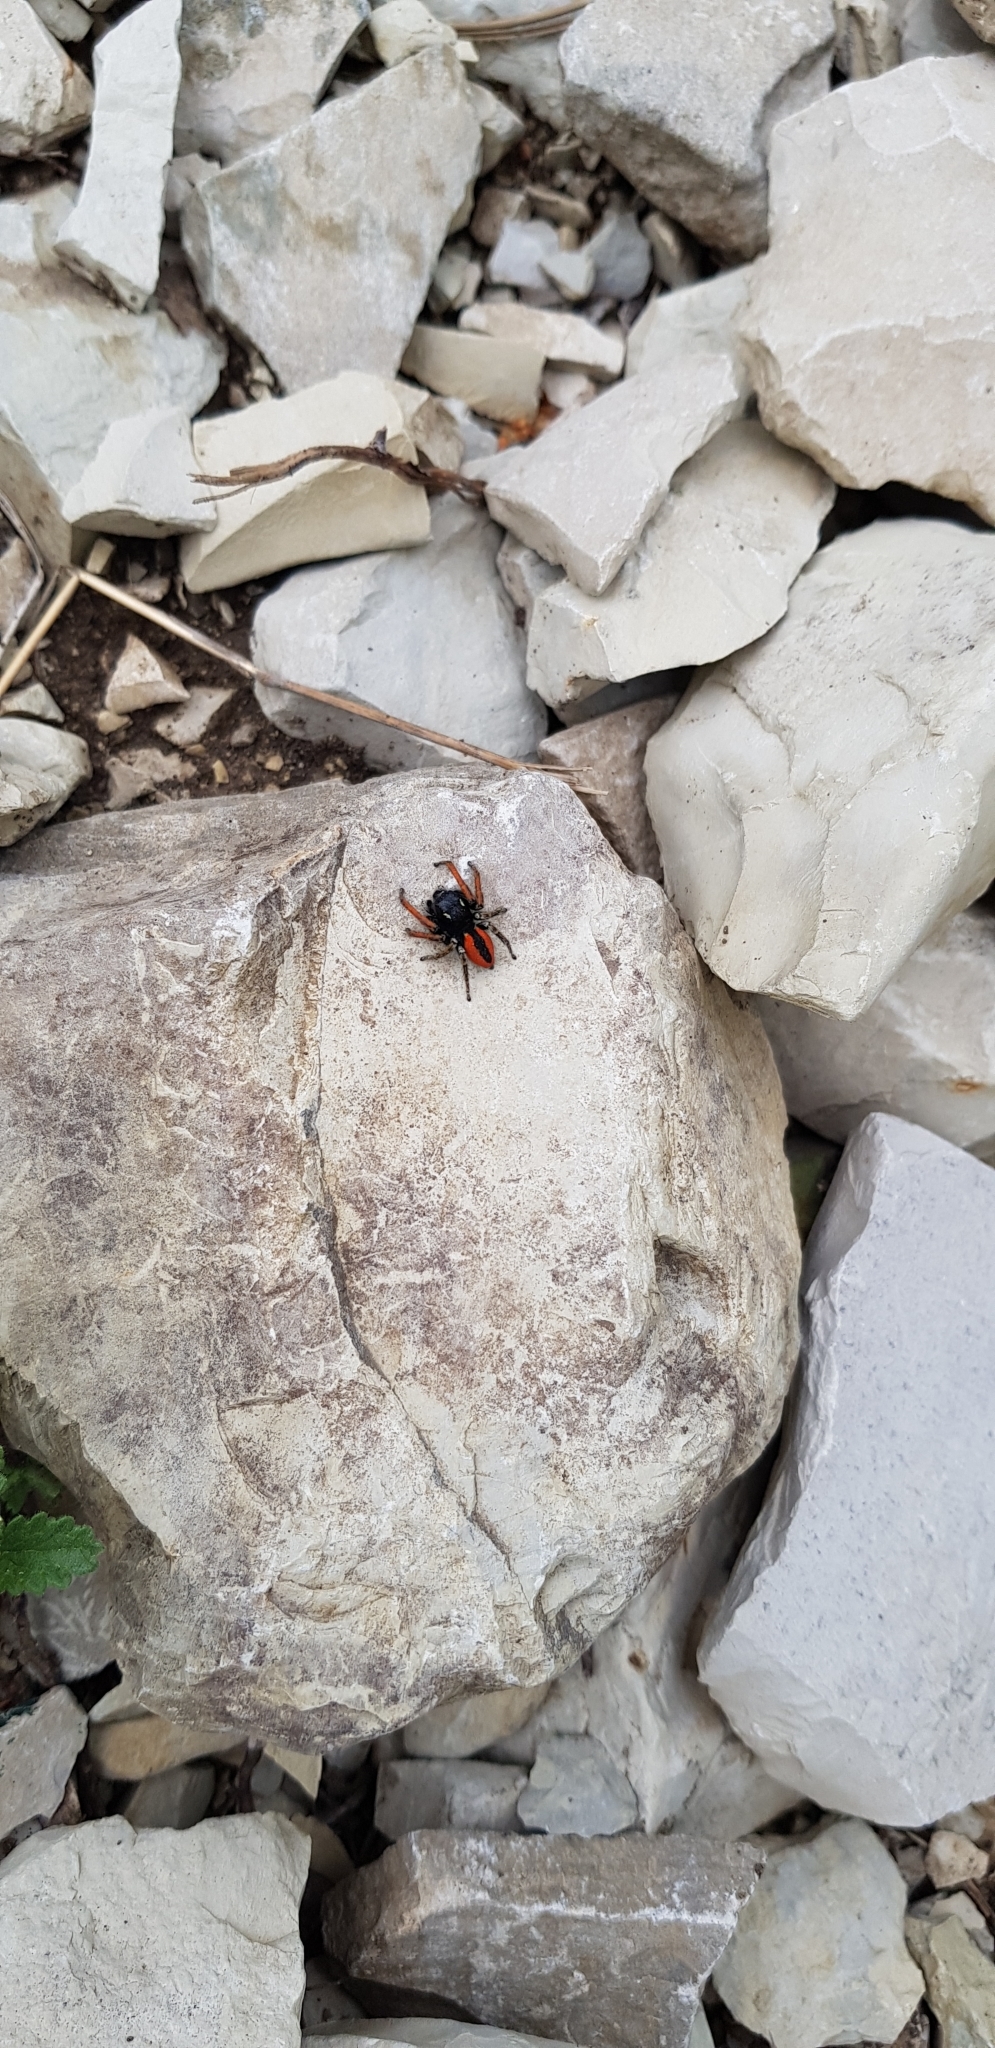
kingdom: Animalia
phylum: Arthropoda
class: Arachnida
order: Araneae
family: Salticidae
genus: Philaeus
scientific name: Philaeus chrysops
